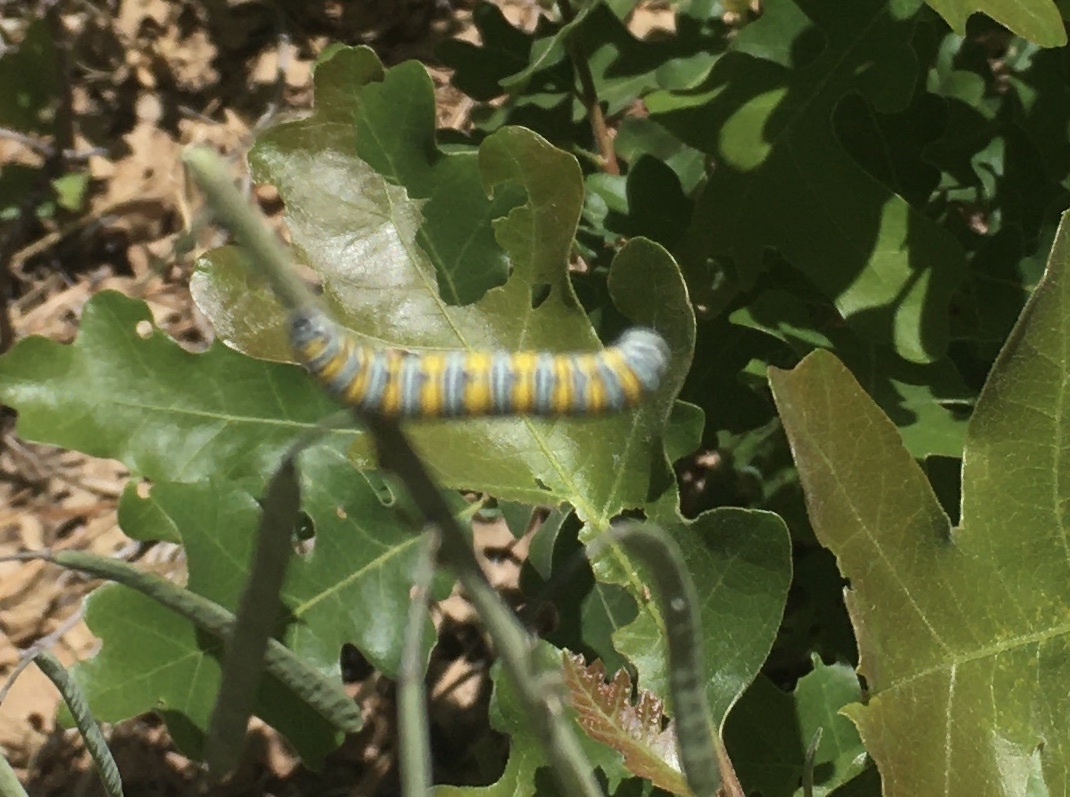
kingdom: Animalia
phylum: Arthropoda
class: Insecta
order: Lepidoptera
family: Pieridae
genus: Pontia
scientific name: Pontia sisymbrii
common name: California white
